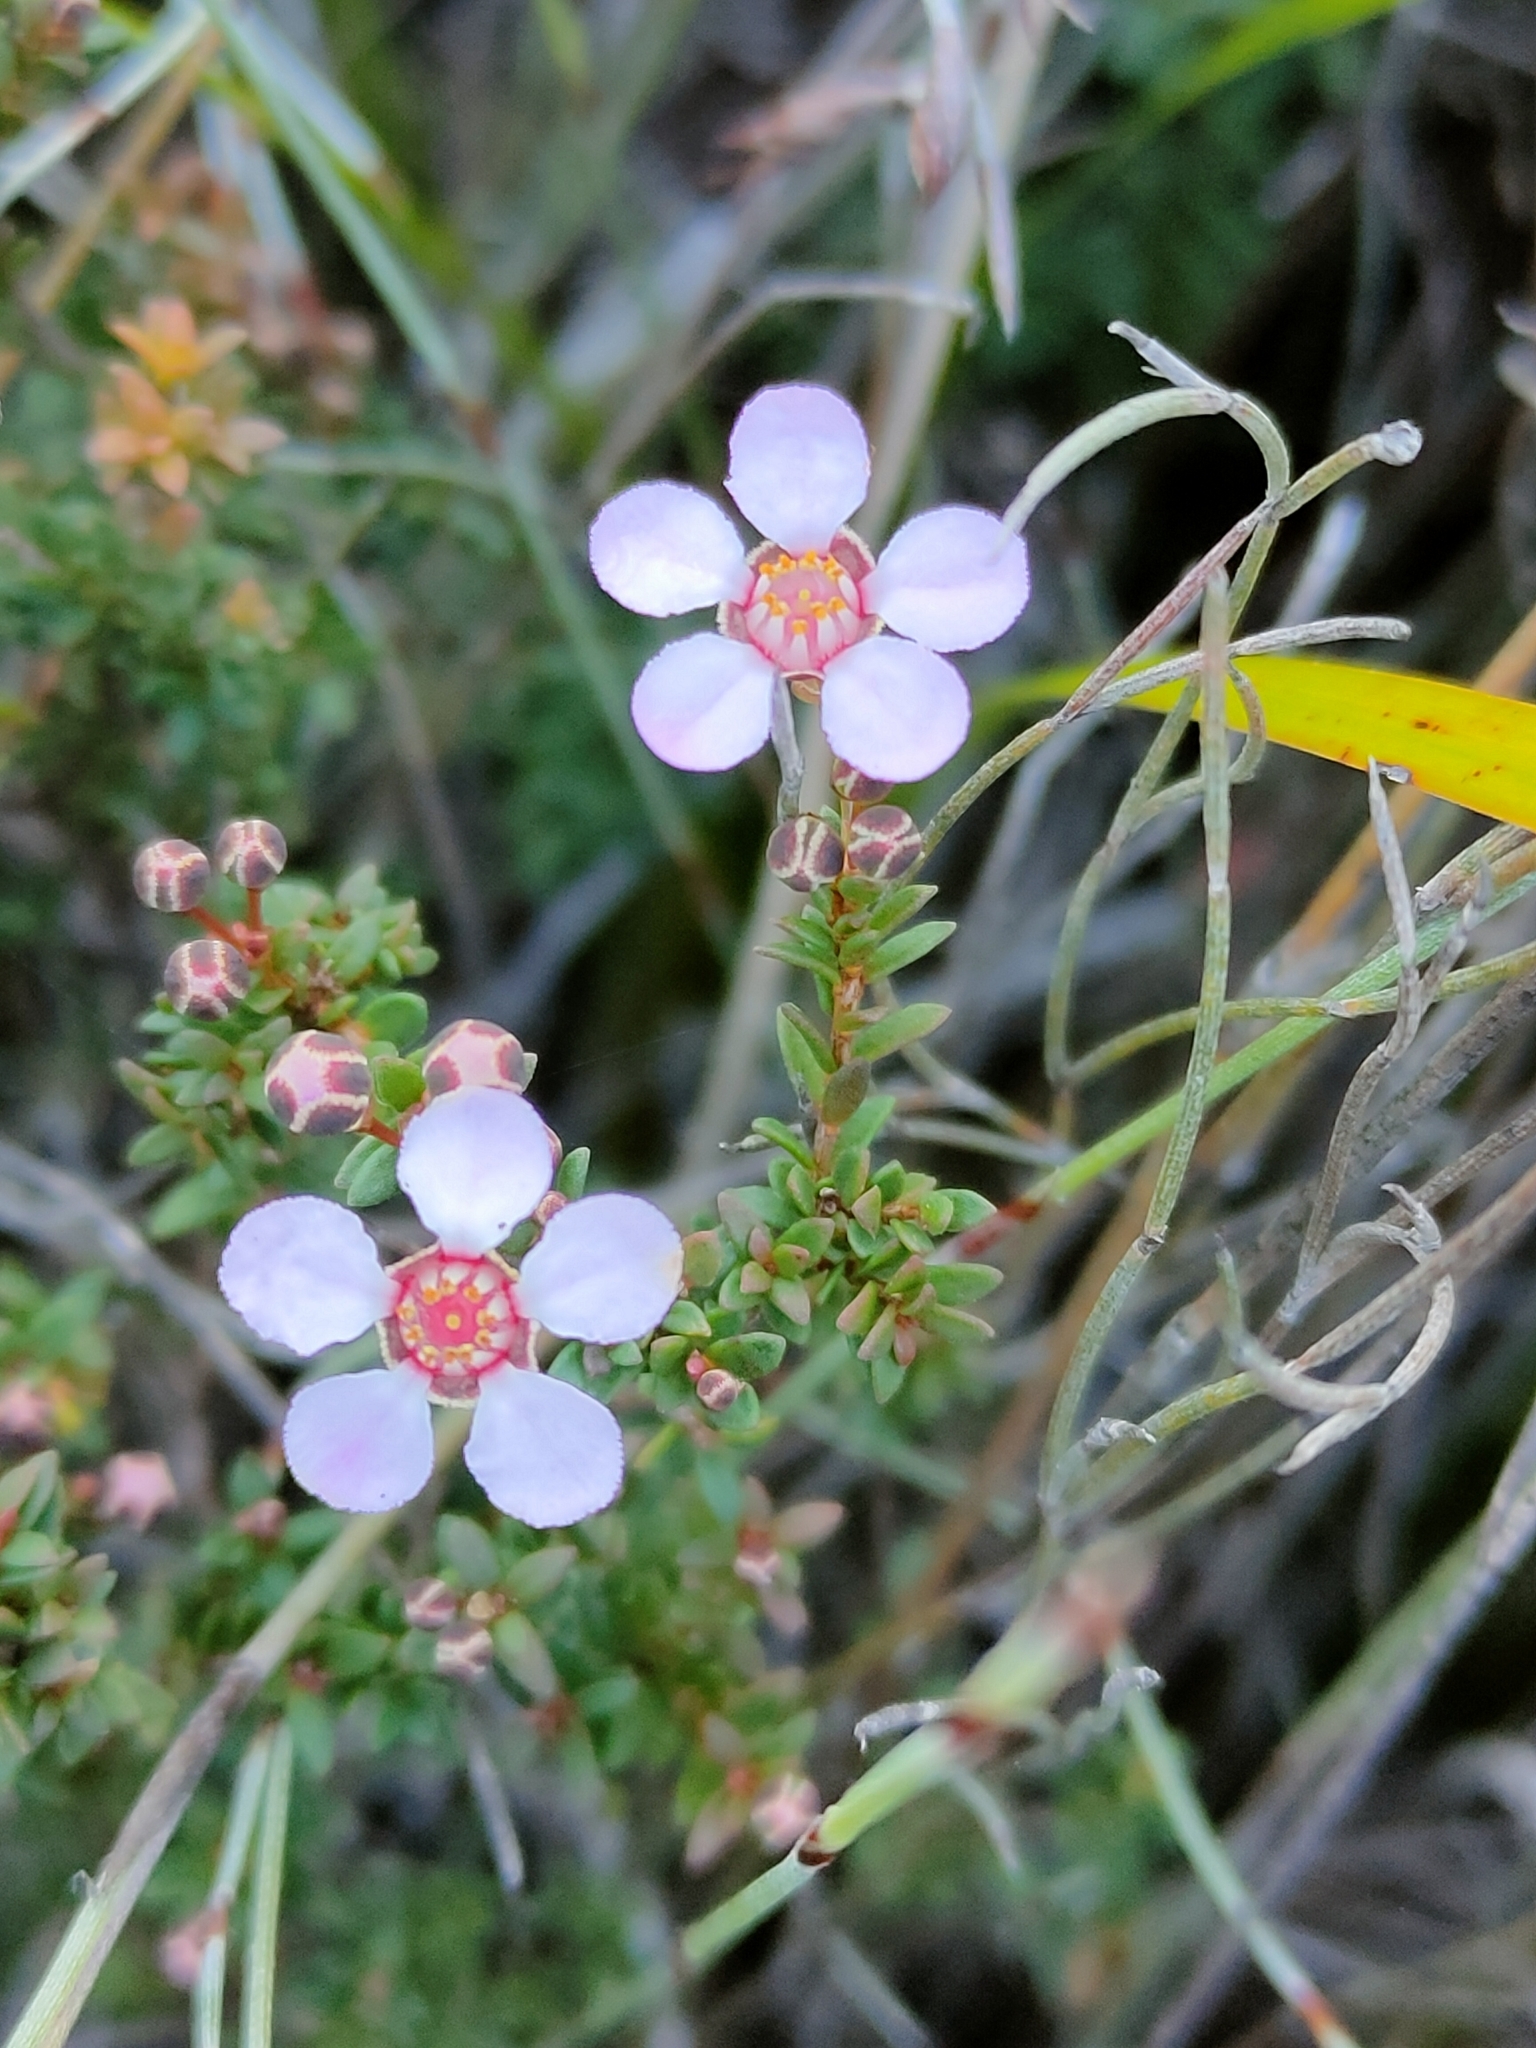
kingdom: Plantae
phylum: Tracheophyta
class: Magnoliopsida
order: Myrtales
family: Myrtaceae
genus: Euryomyrtus
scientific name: Euryomyrtus ramosissima
